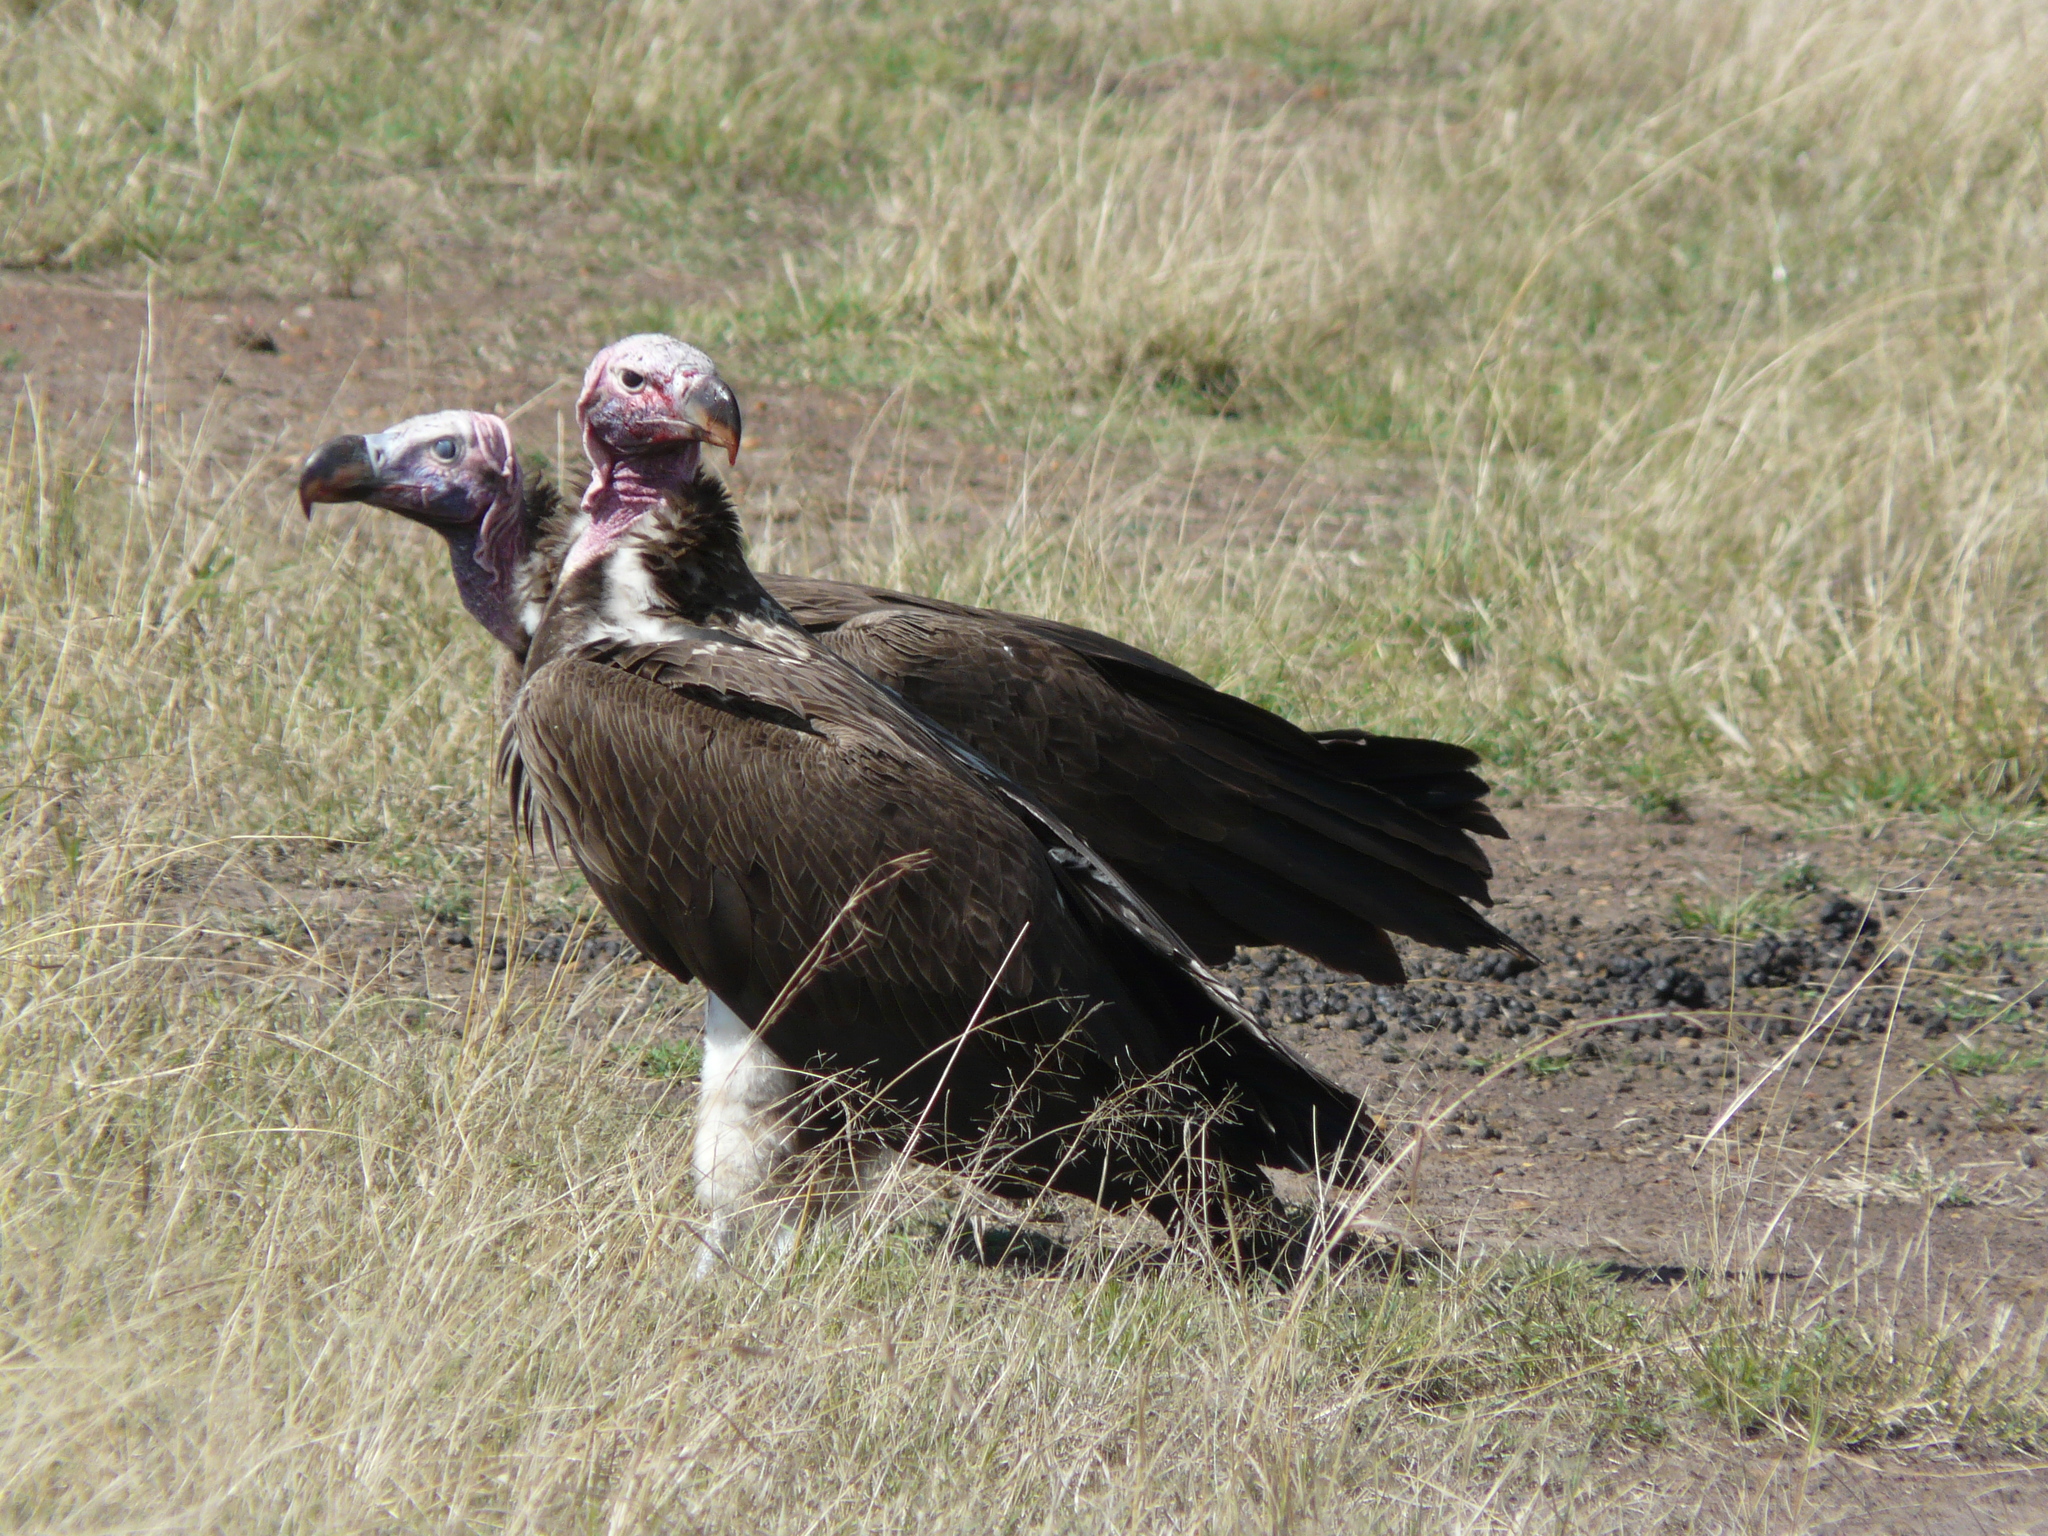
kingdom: Animalia
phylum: Chordata
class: Aves
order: Accipitriformes
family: Accipitridae
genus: Torgos
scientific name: Torgos tracheliotos
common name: Lappet-faced vulture
